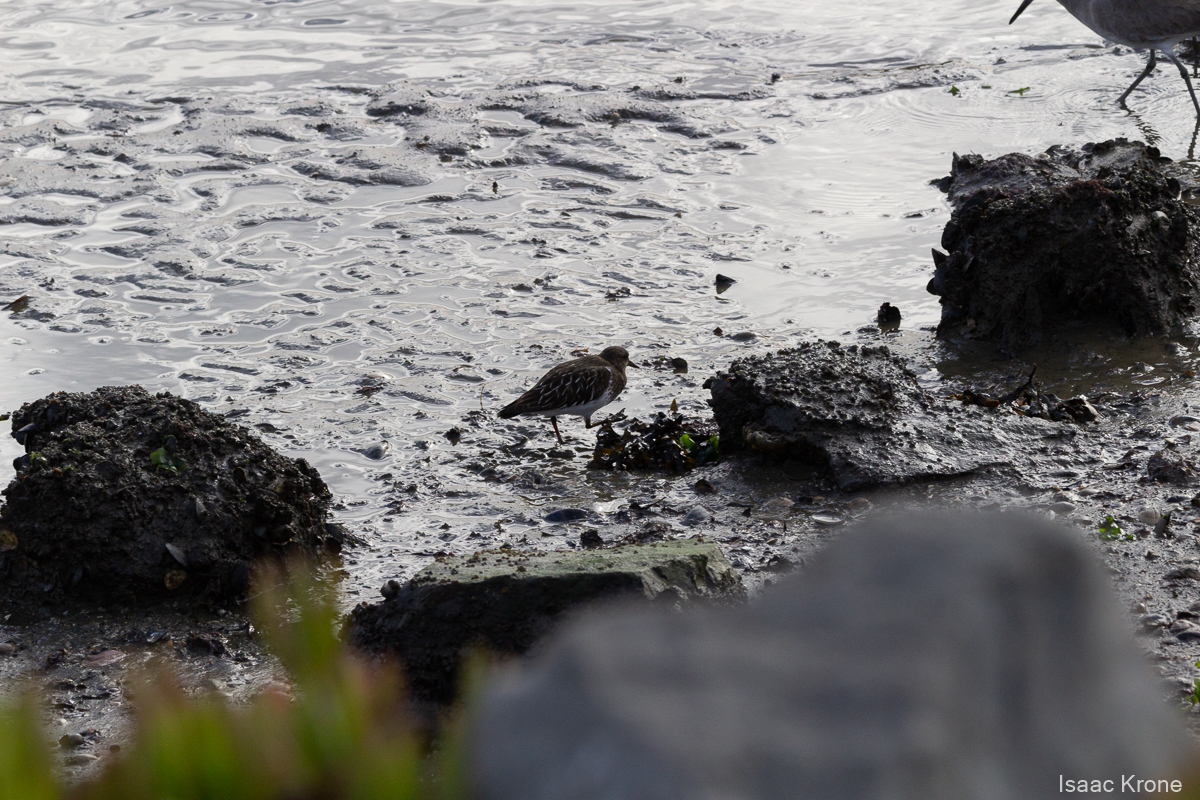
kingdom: Animalia
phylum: Chordata
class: Aves
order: Charadriiformes
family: Scolopacidae
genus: Arenaria
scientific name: Arenaria melanocephala
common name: Black turnstone
